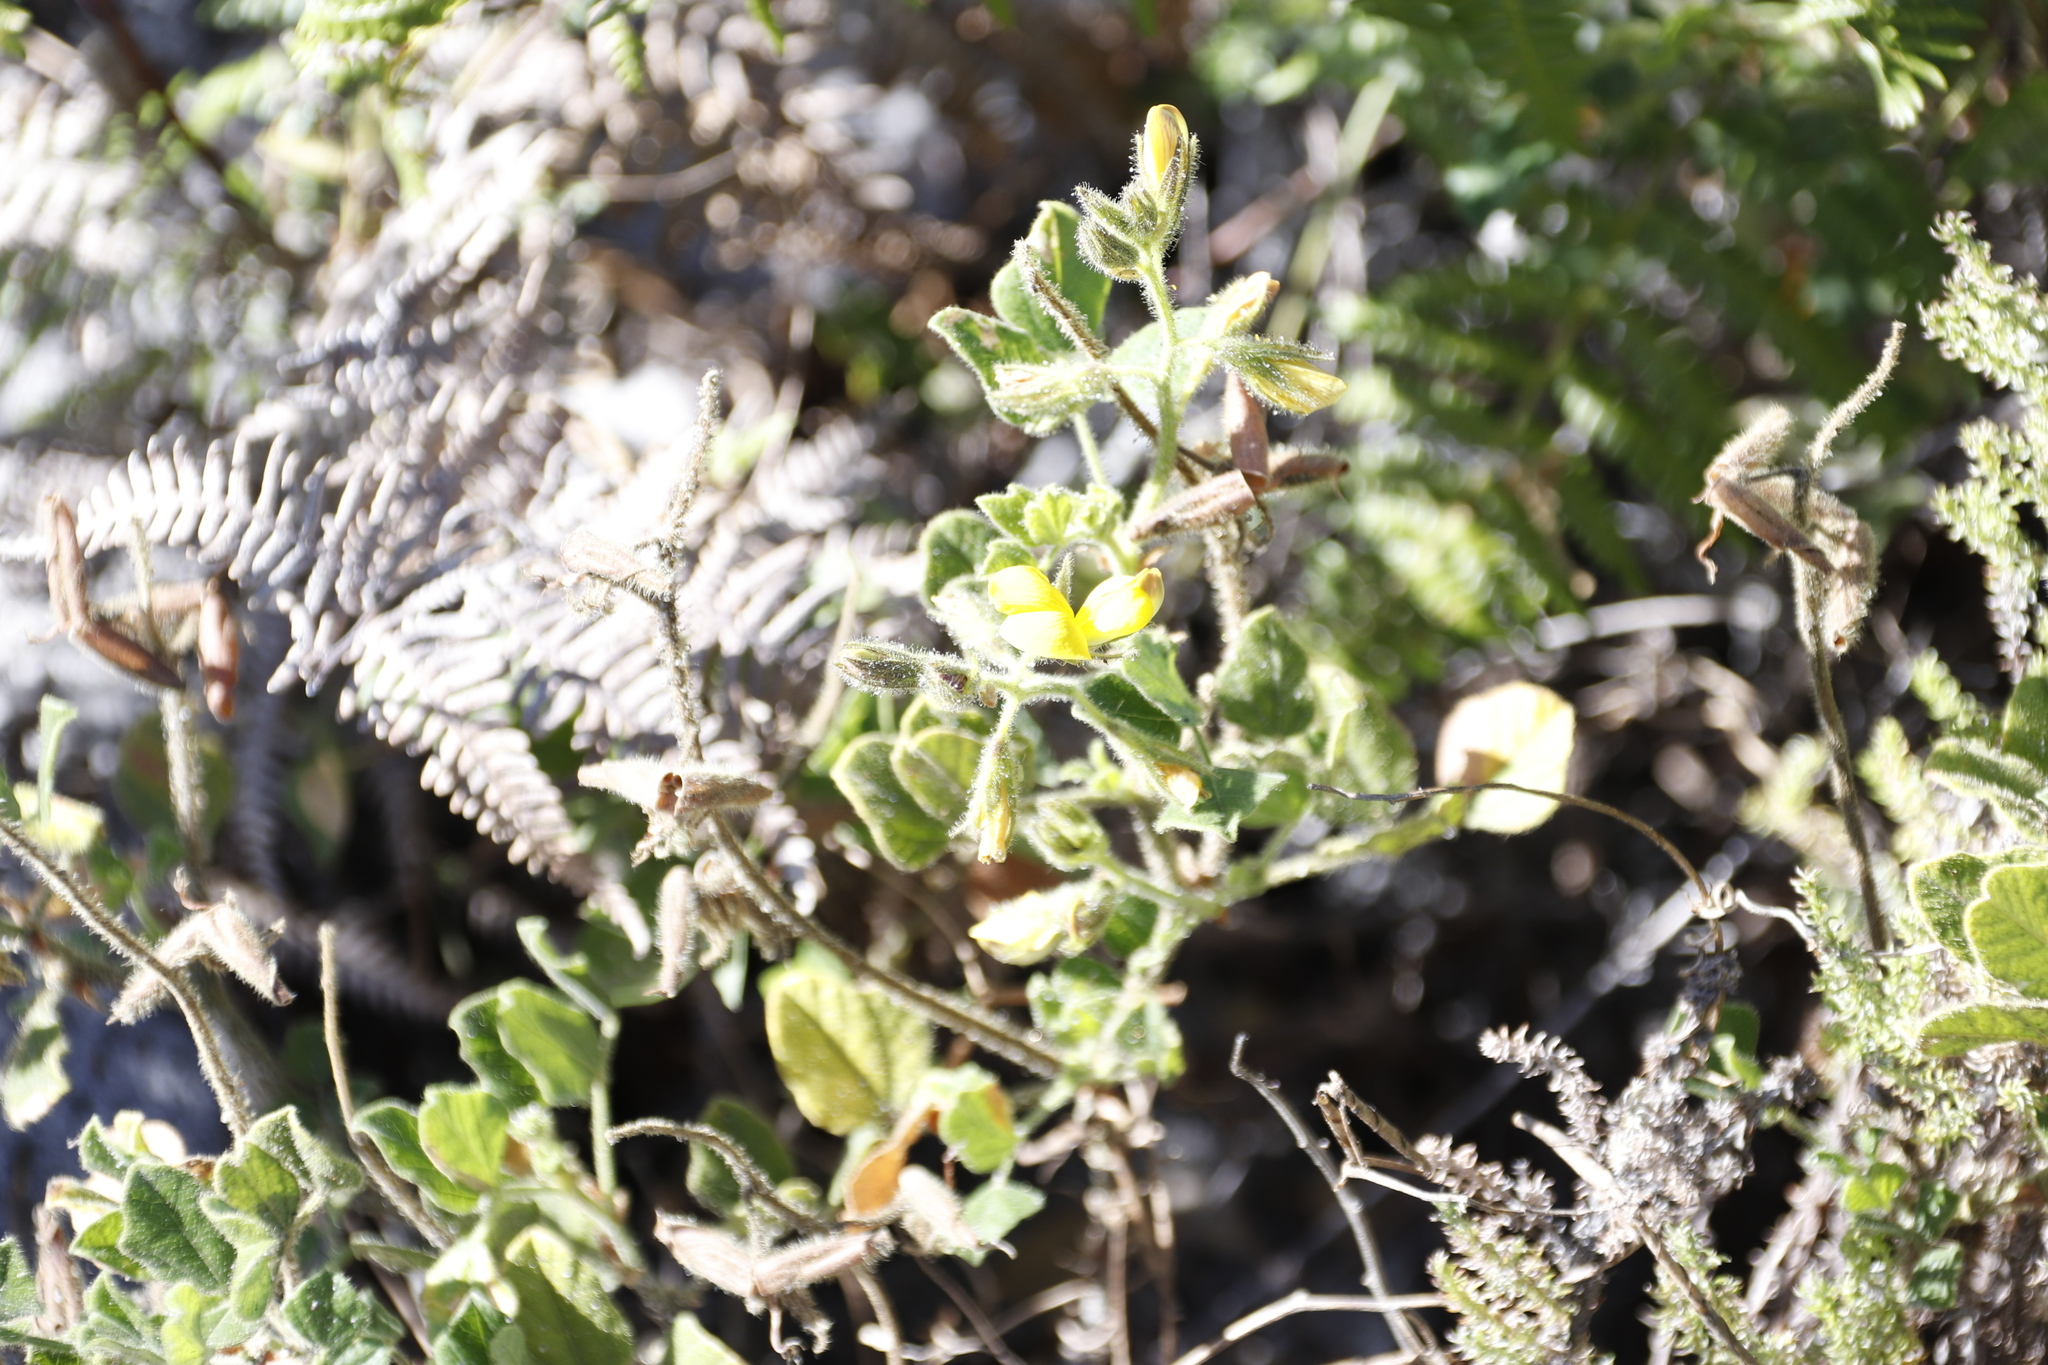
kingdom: Plantae
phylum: Tracheophyta
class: Magnoliopsida
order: Fabales
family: Fabaceae
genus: Bolusafra
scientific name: Bolusafra bituminosa
